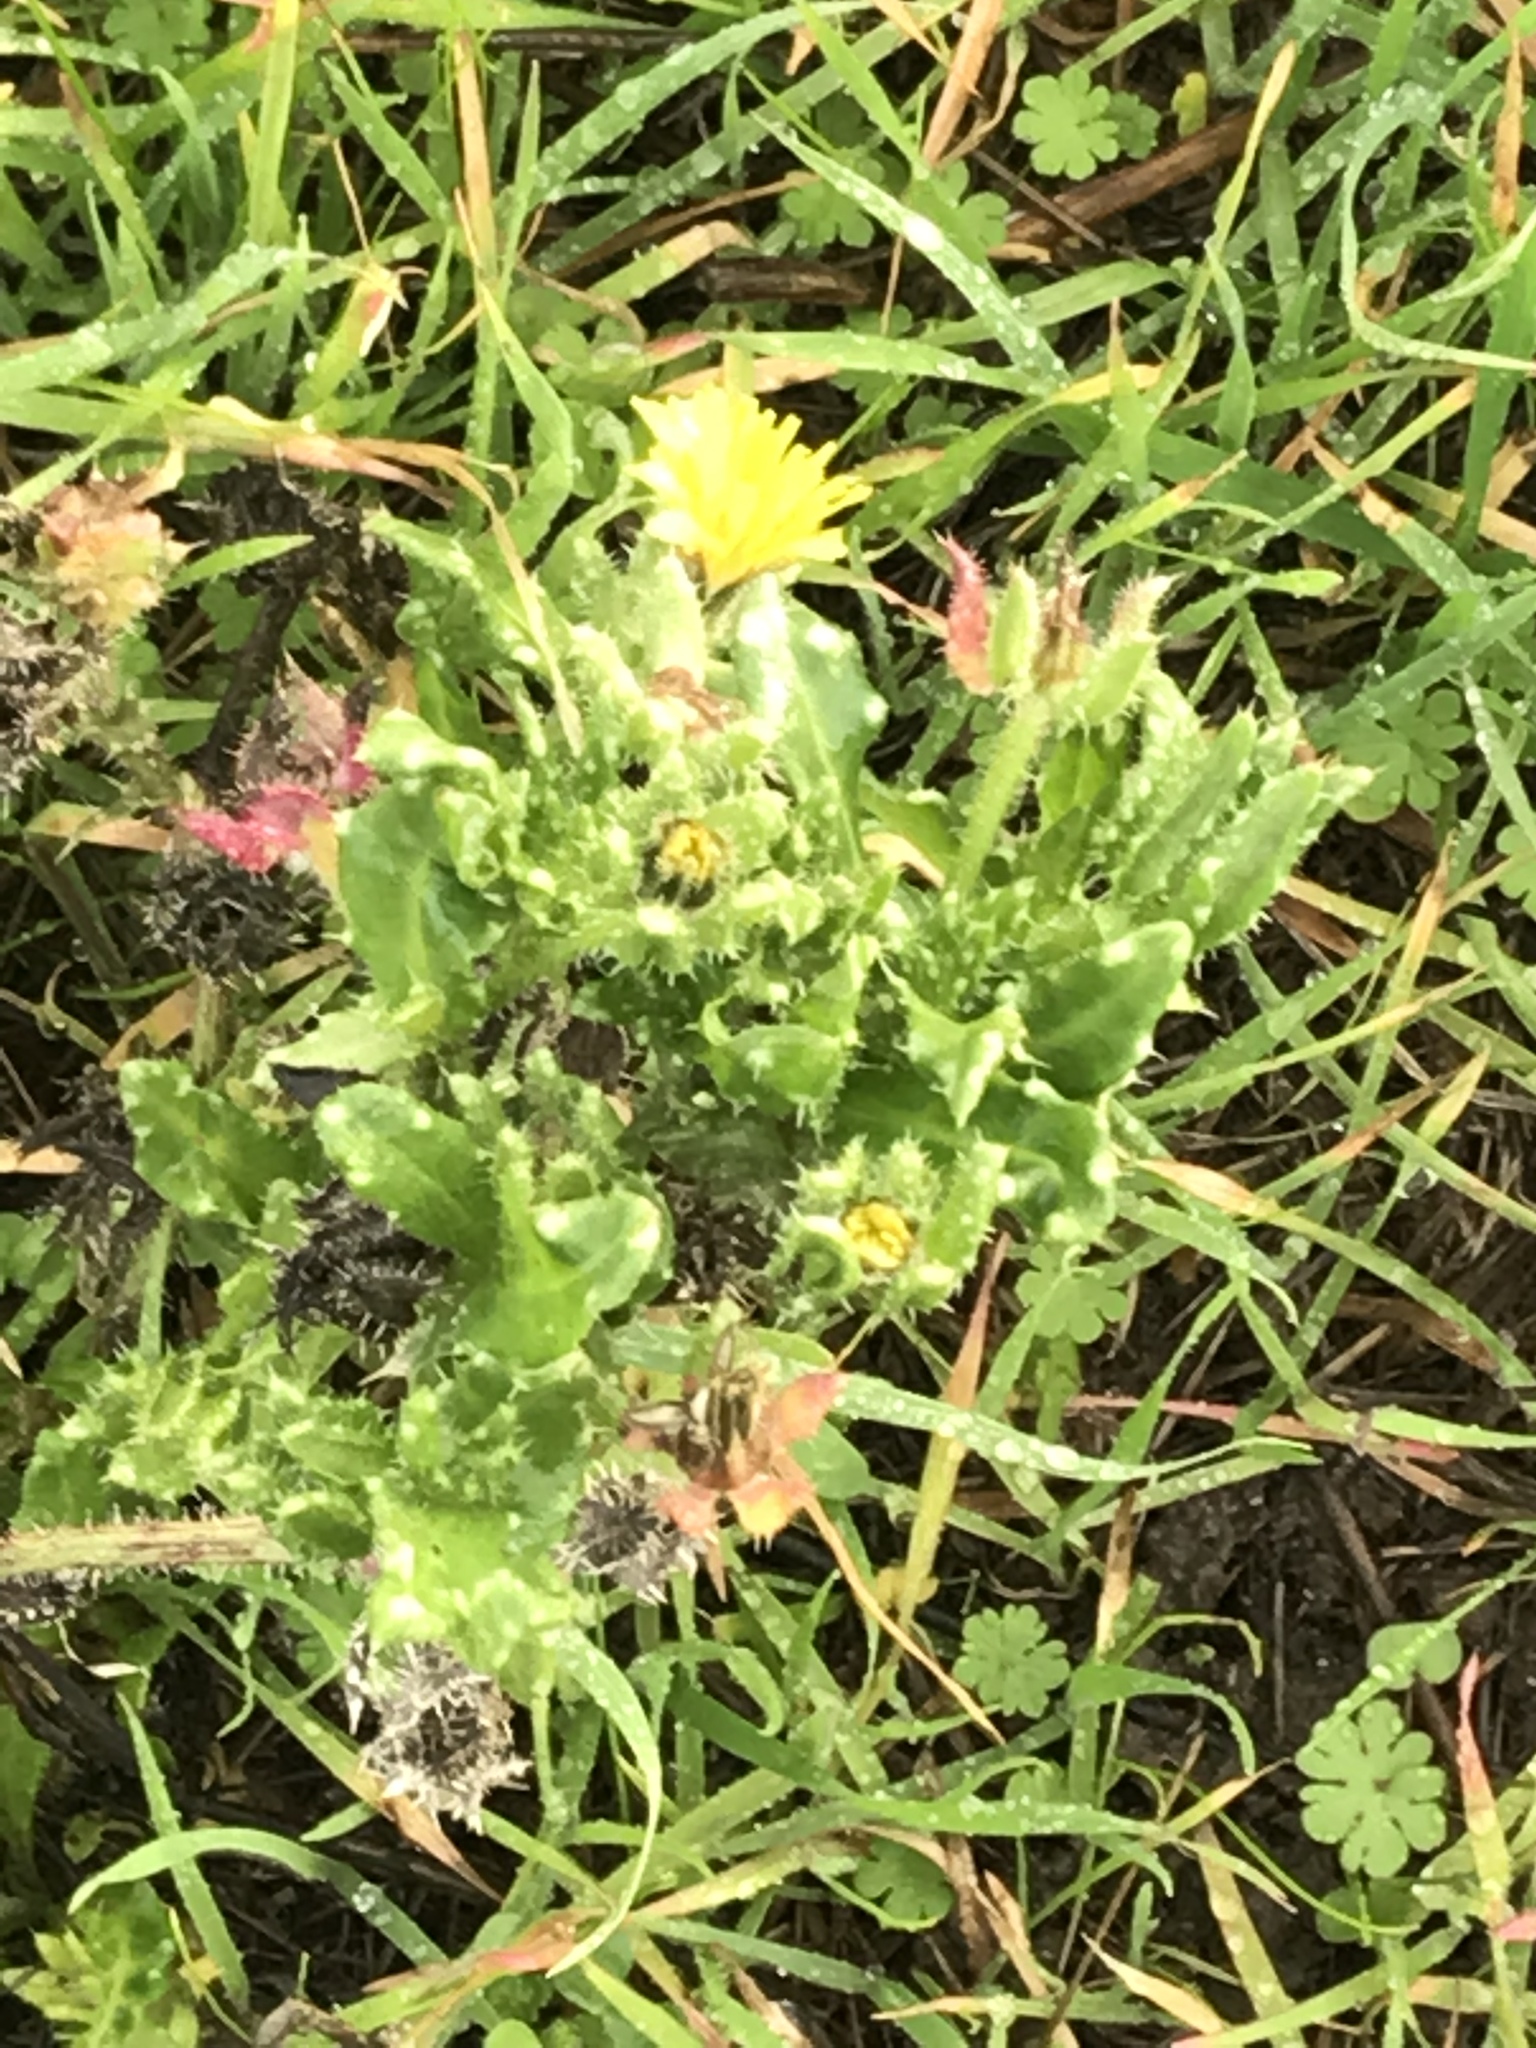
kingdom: Plantae
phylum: Tracheophyta
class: Magnoliopsida
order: Asterales
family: Asteraceae
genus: Helminthotheca
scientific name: Helminthotheca echioides
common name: Ox-tongue
